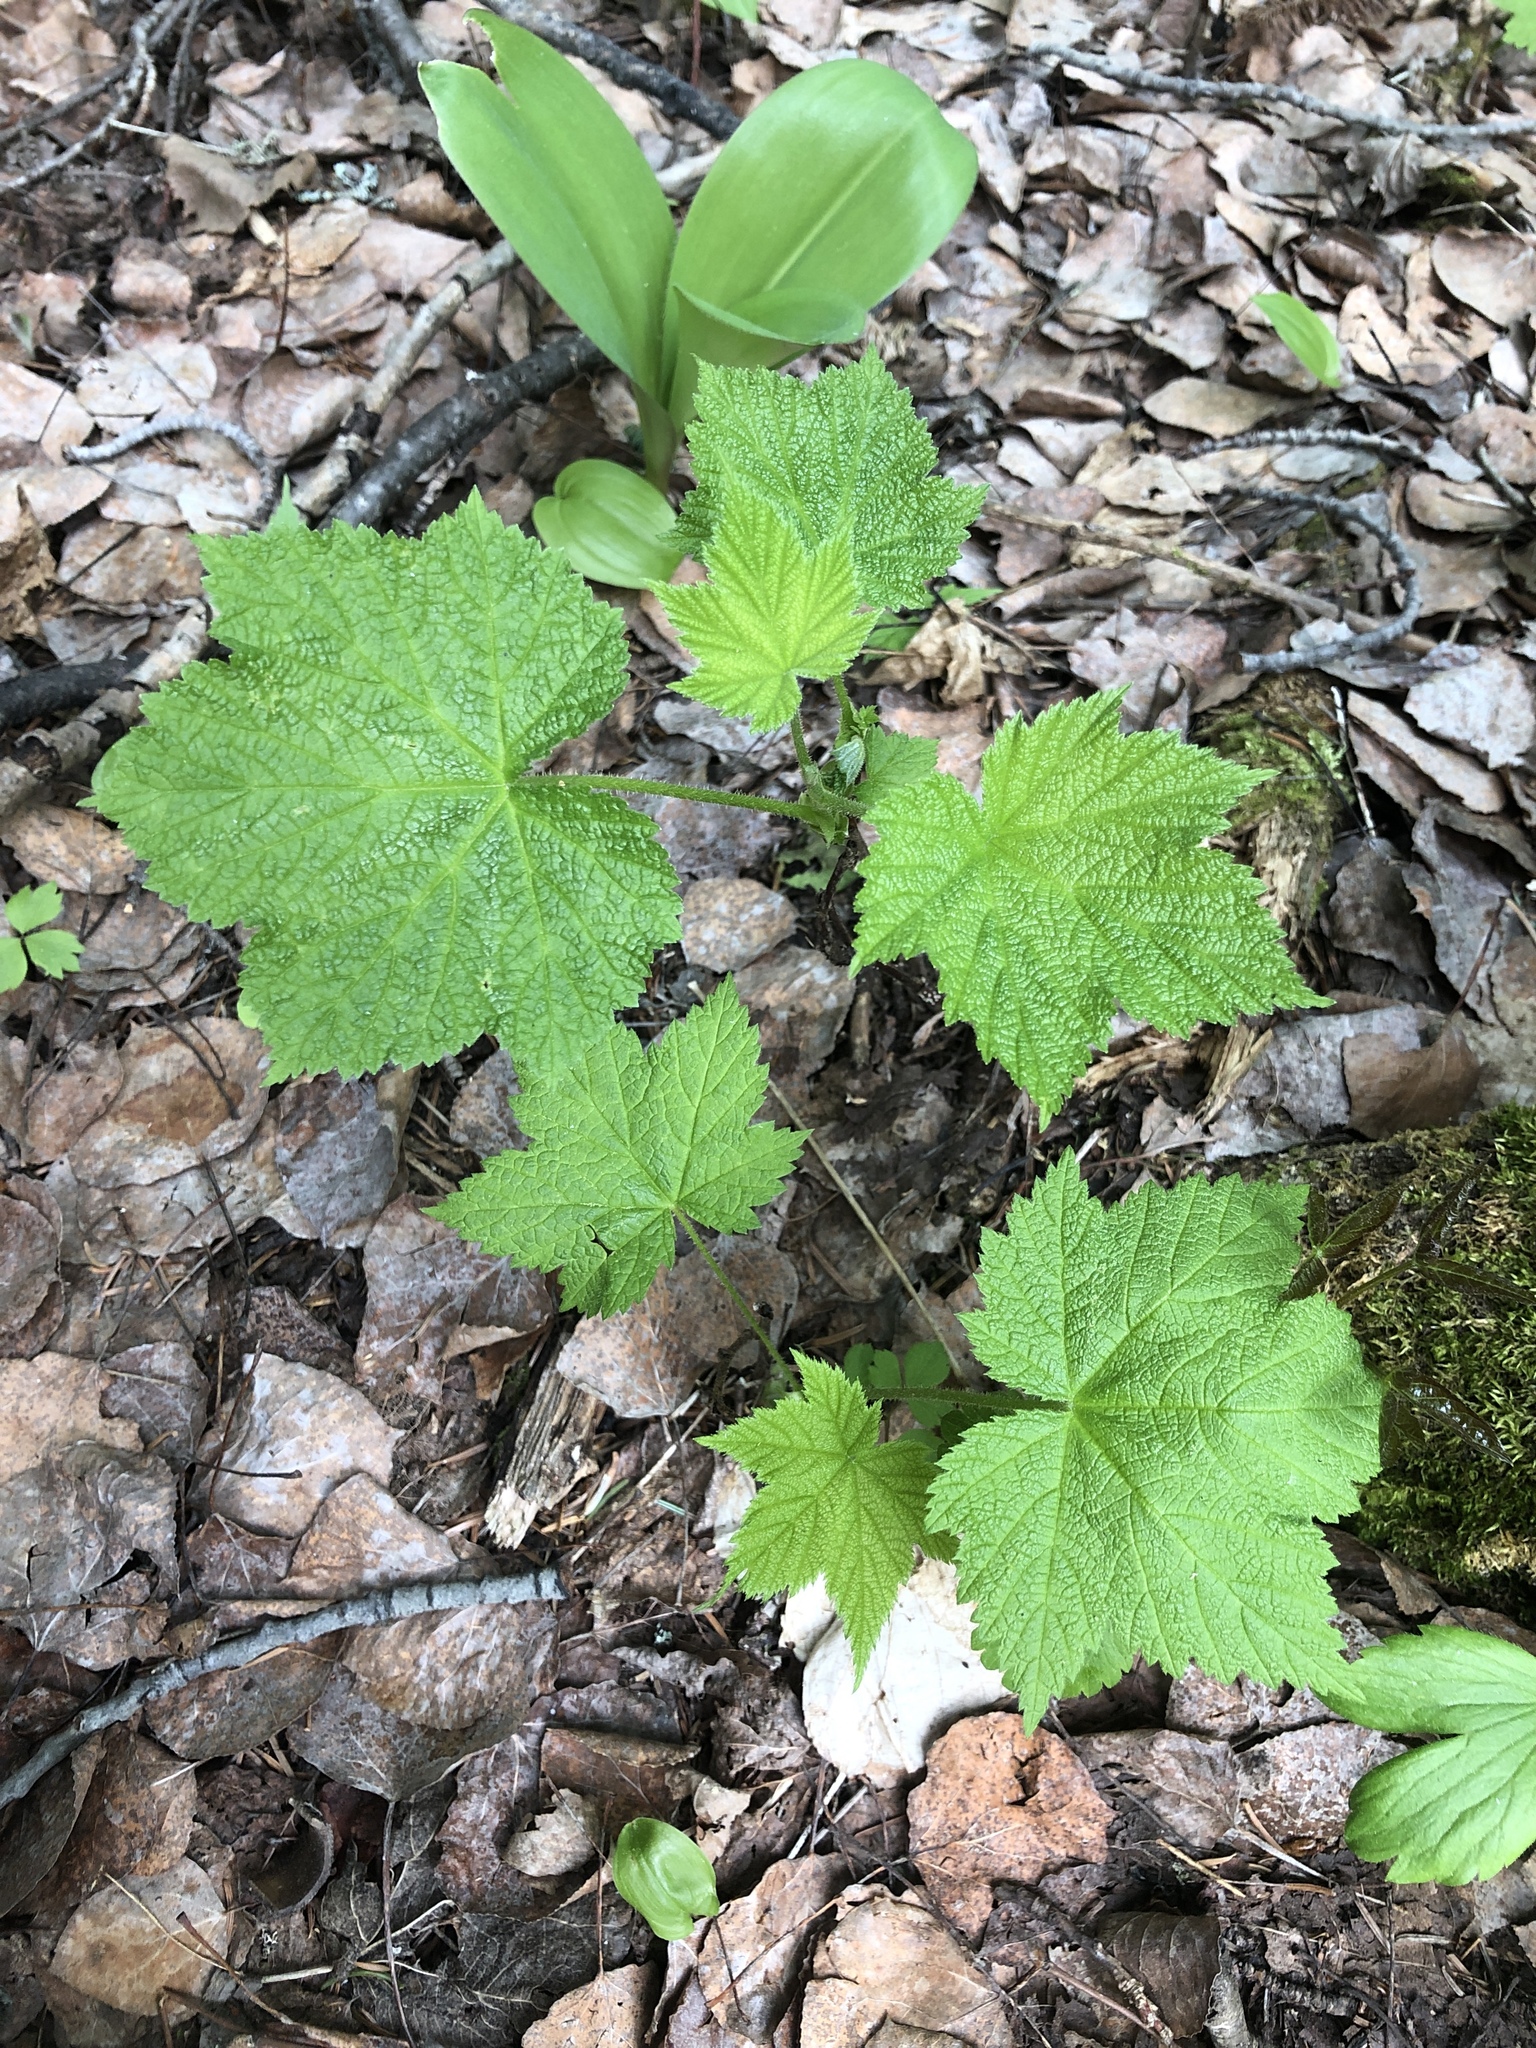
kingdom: Plantae
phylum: Tracheophyta
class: Magnoliopsida
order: Rosales
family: Rosaceae
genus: Rubus
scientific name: Rubus parviflorus
